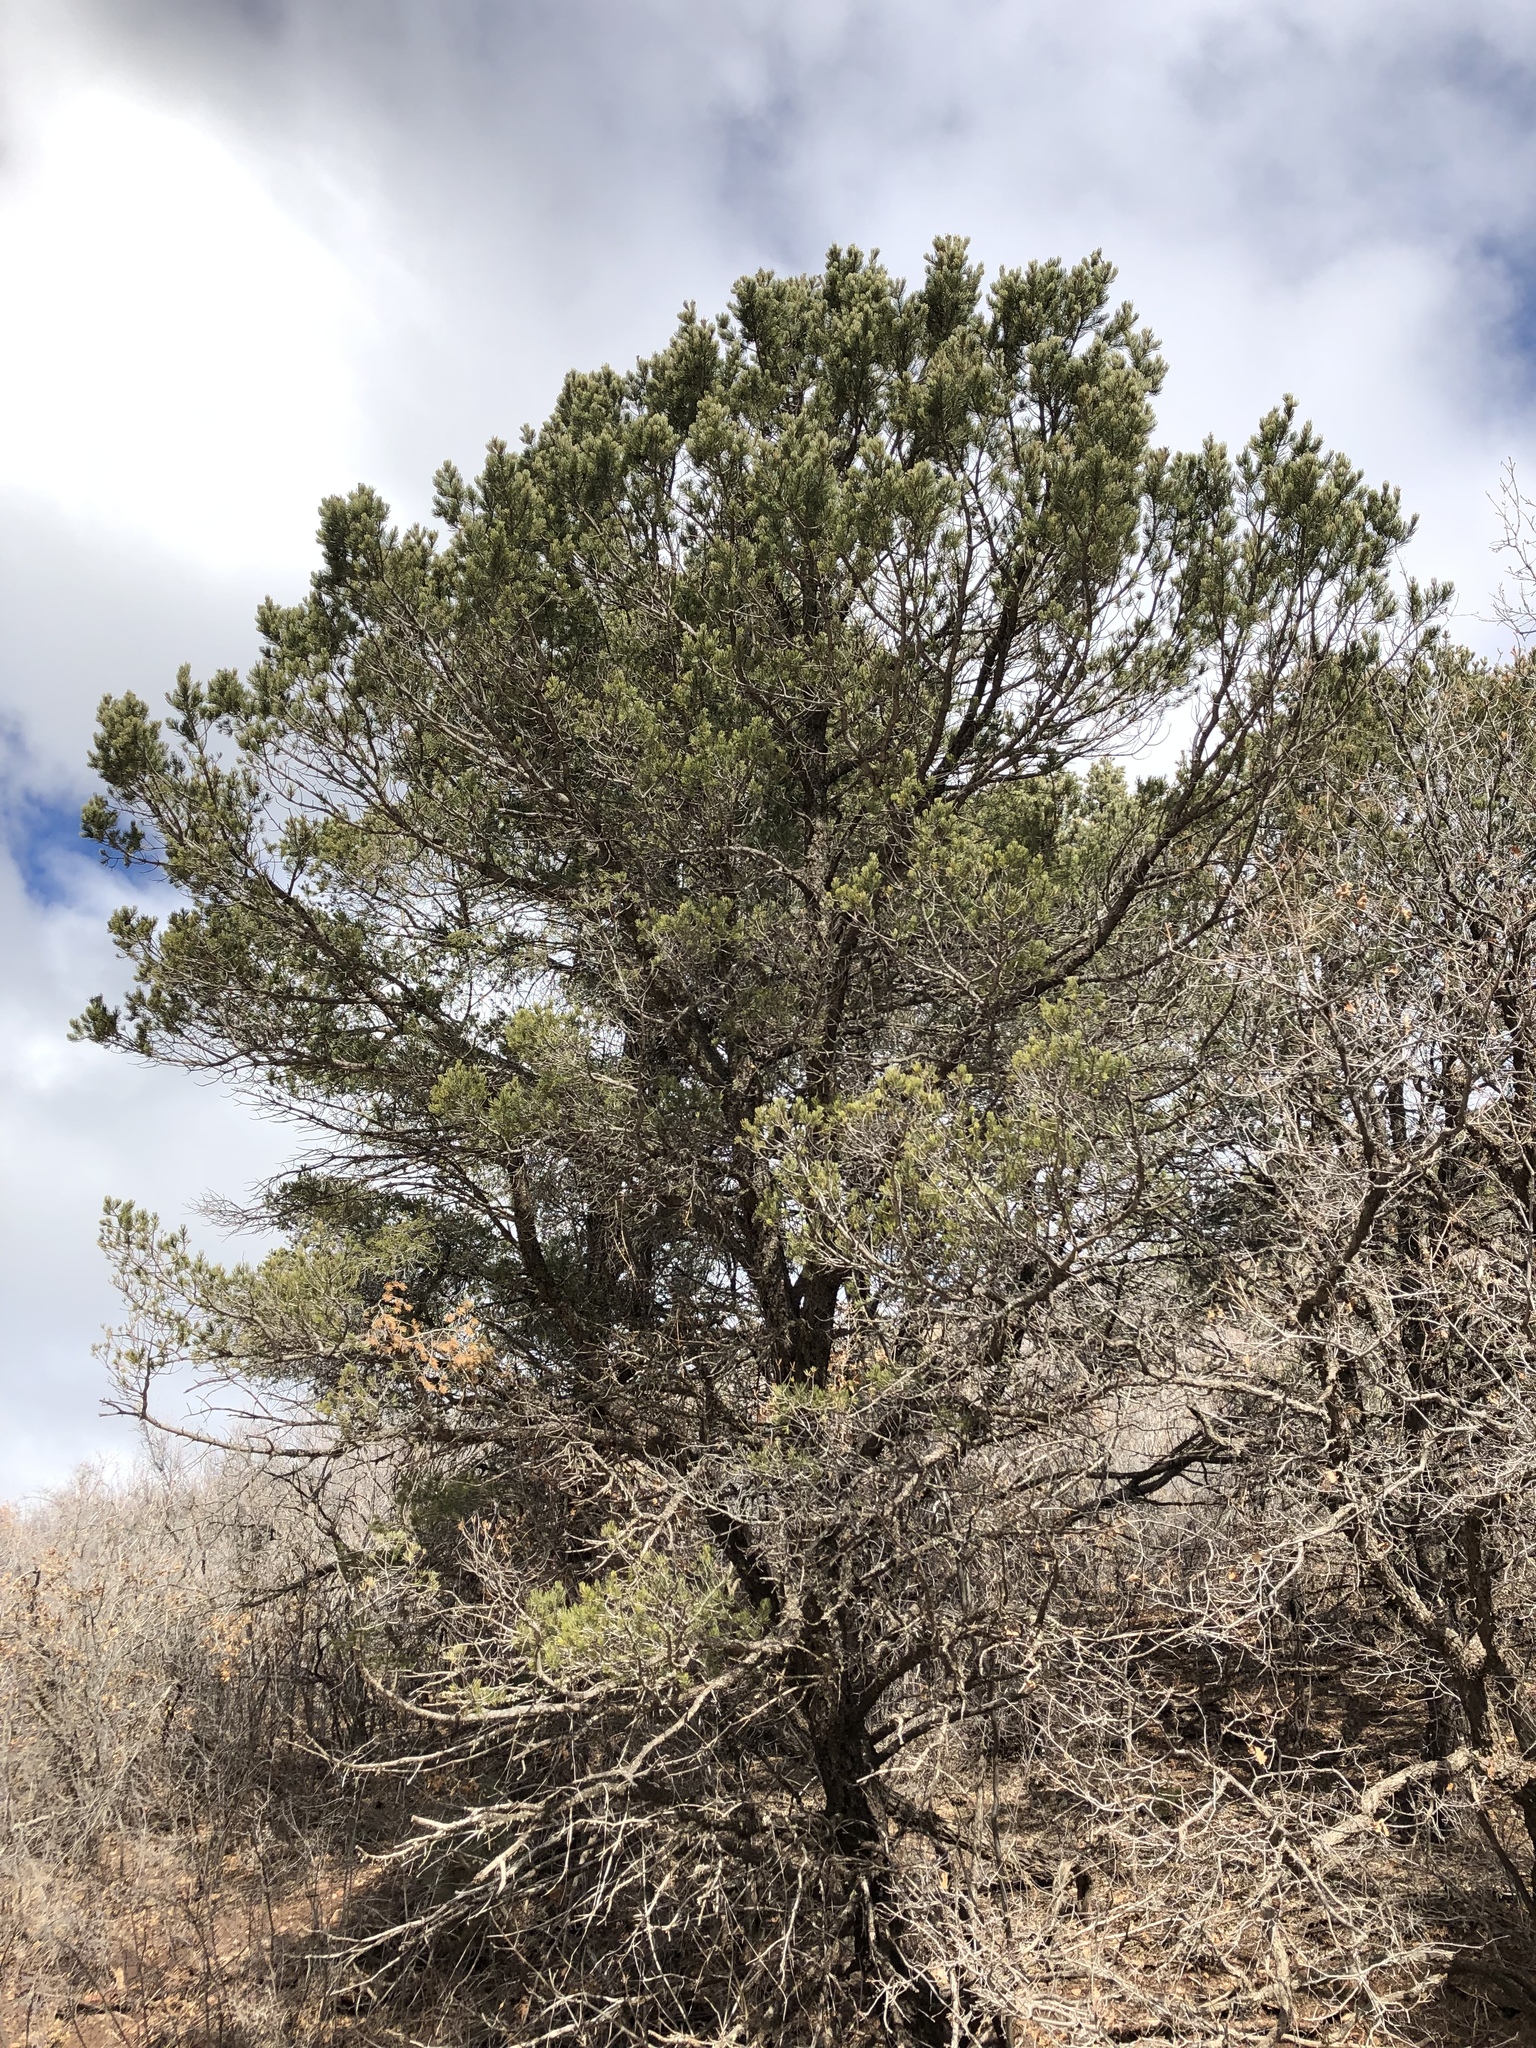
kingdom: Plantae
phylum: Tracheophyta
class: Pinopsida
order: Pinales
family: Pinaceae
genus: Pinus
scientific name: Pinus edulis
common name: Colorado pinyon
